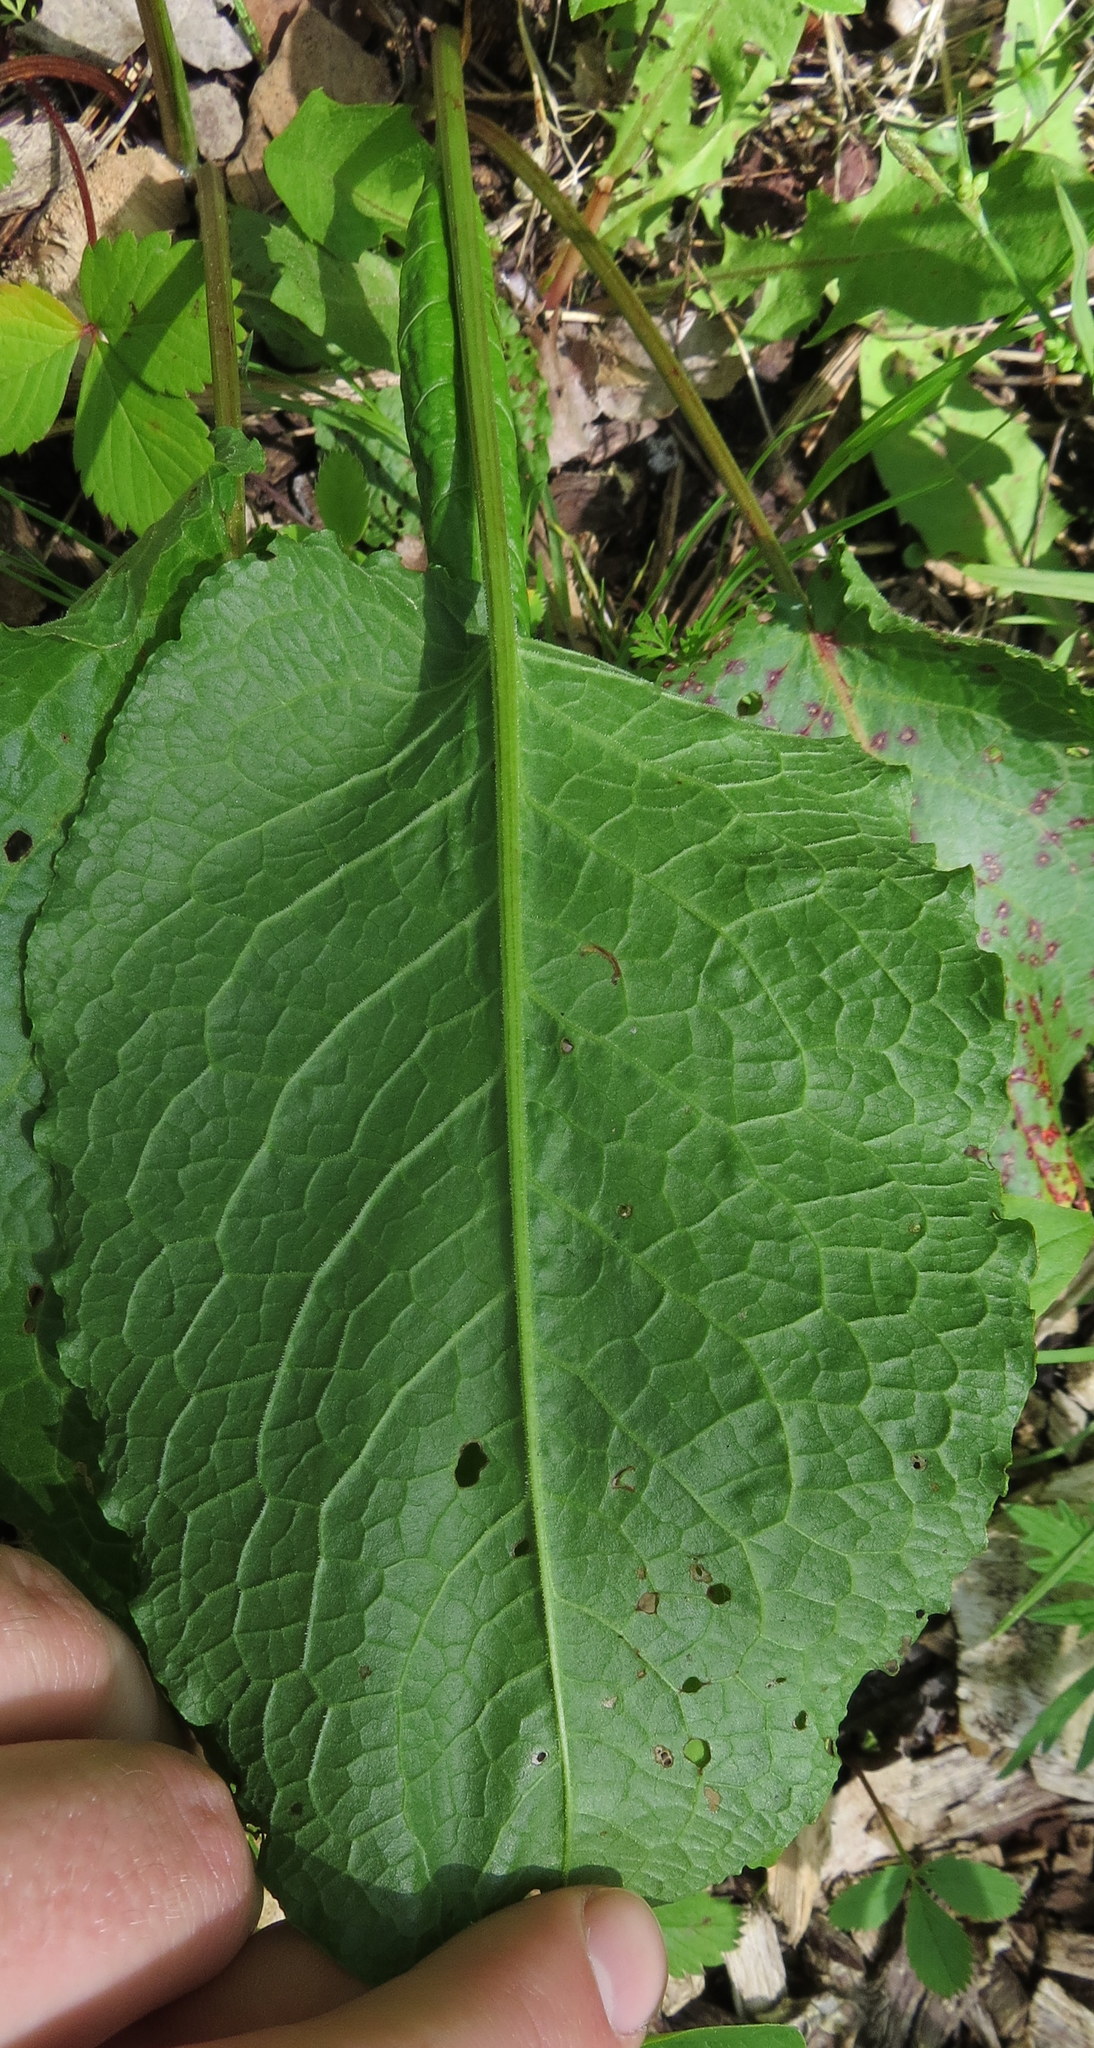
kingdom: Plantae
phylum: Tracheophyta
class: Magnoliopsida
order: Caryophyllales
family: Polygonaceae
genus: Rumex
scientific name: Rumex obtusifolius
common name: Bitter dock
